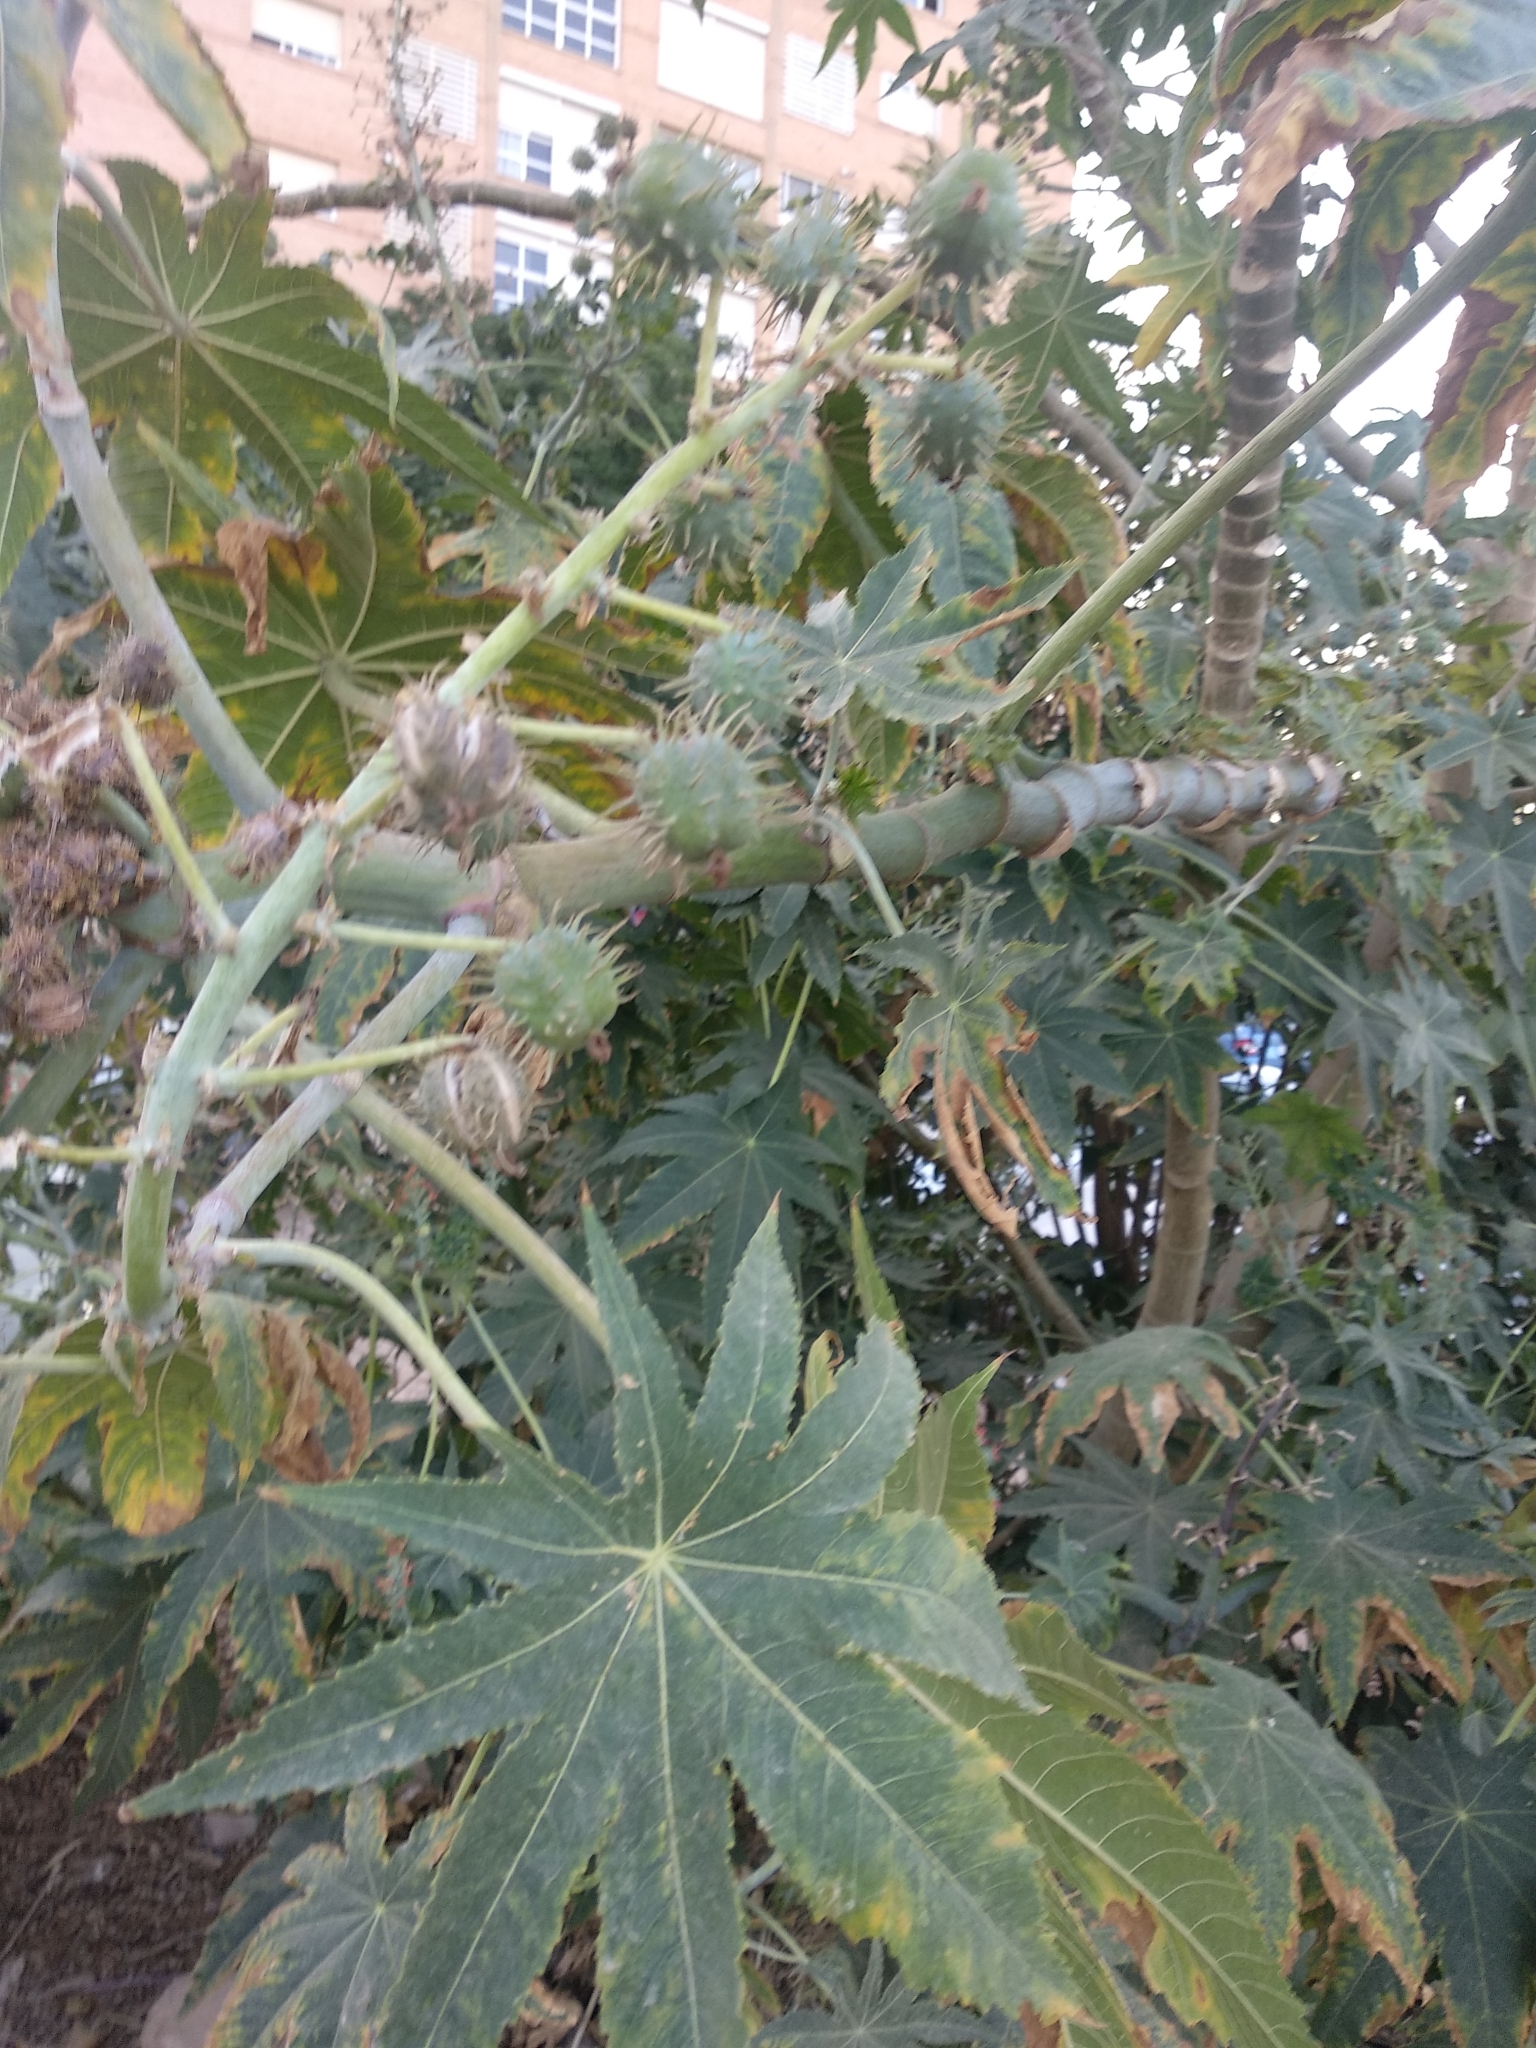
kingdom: Plantae
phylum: Tracheophyta
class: Magnoliopsida
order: Malpighiales
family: Euphorbiaceae
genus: Ricinus
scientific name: Ricinus communis
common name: Castor-oil-plant
